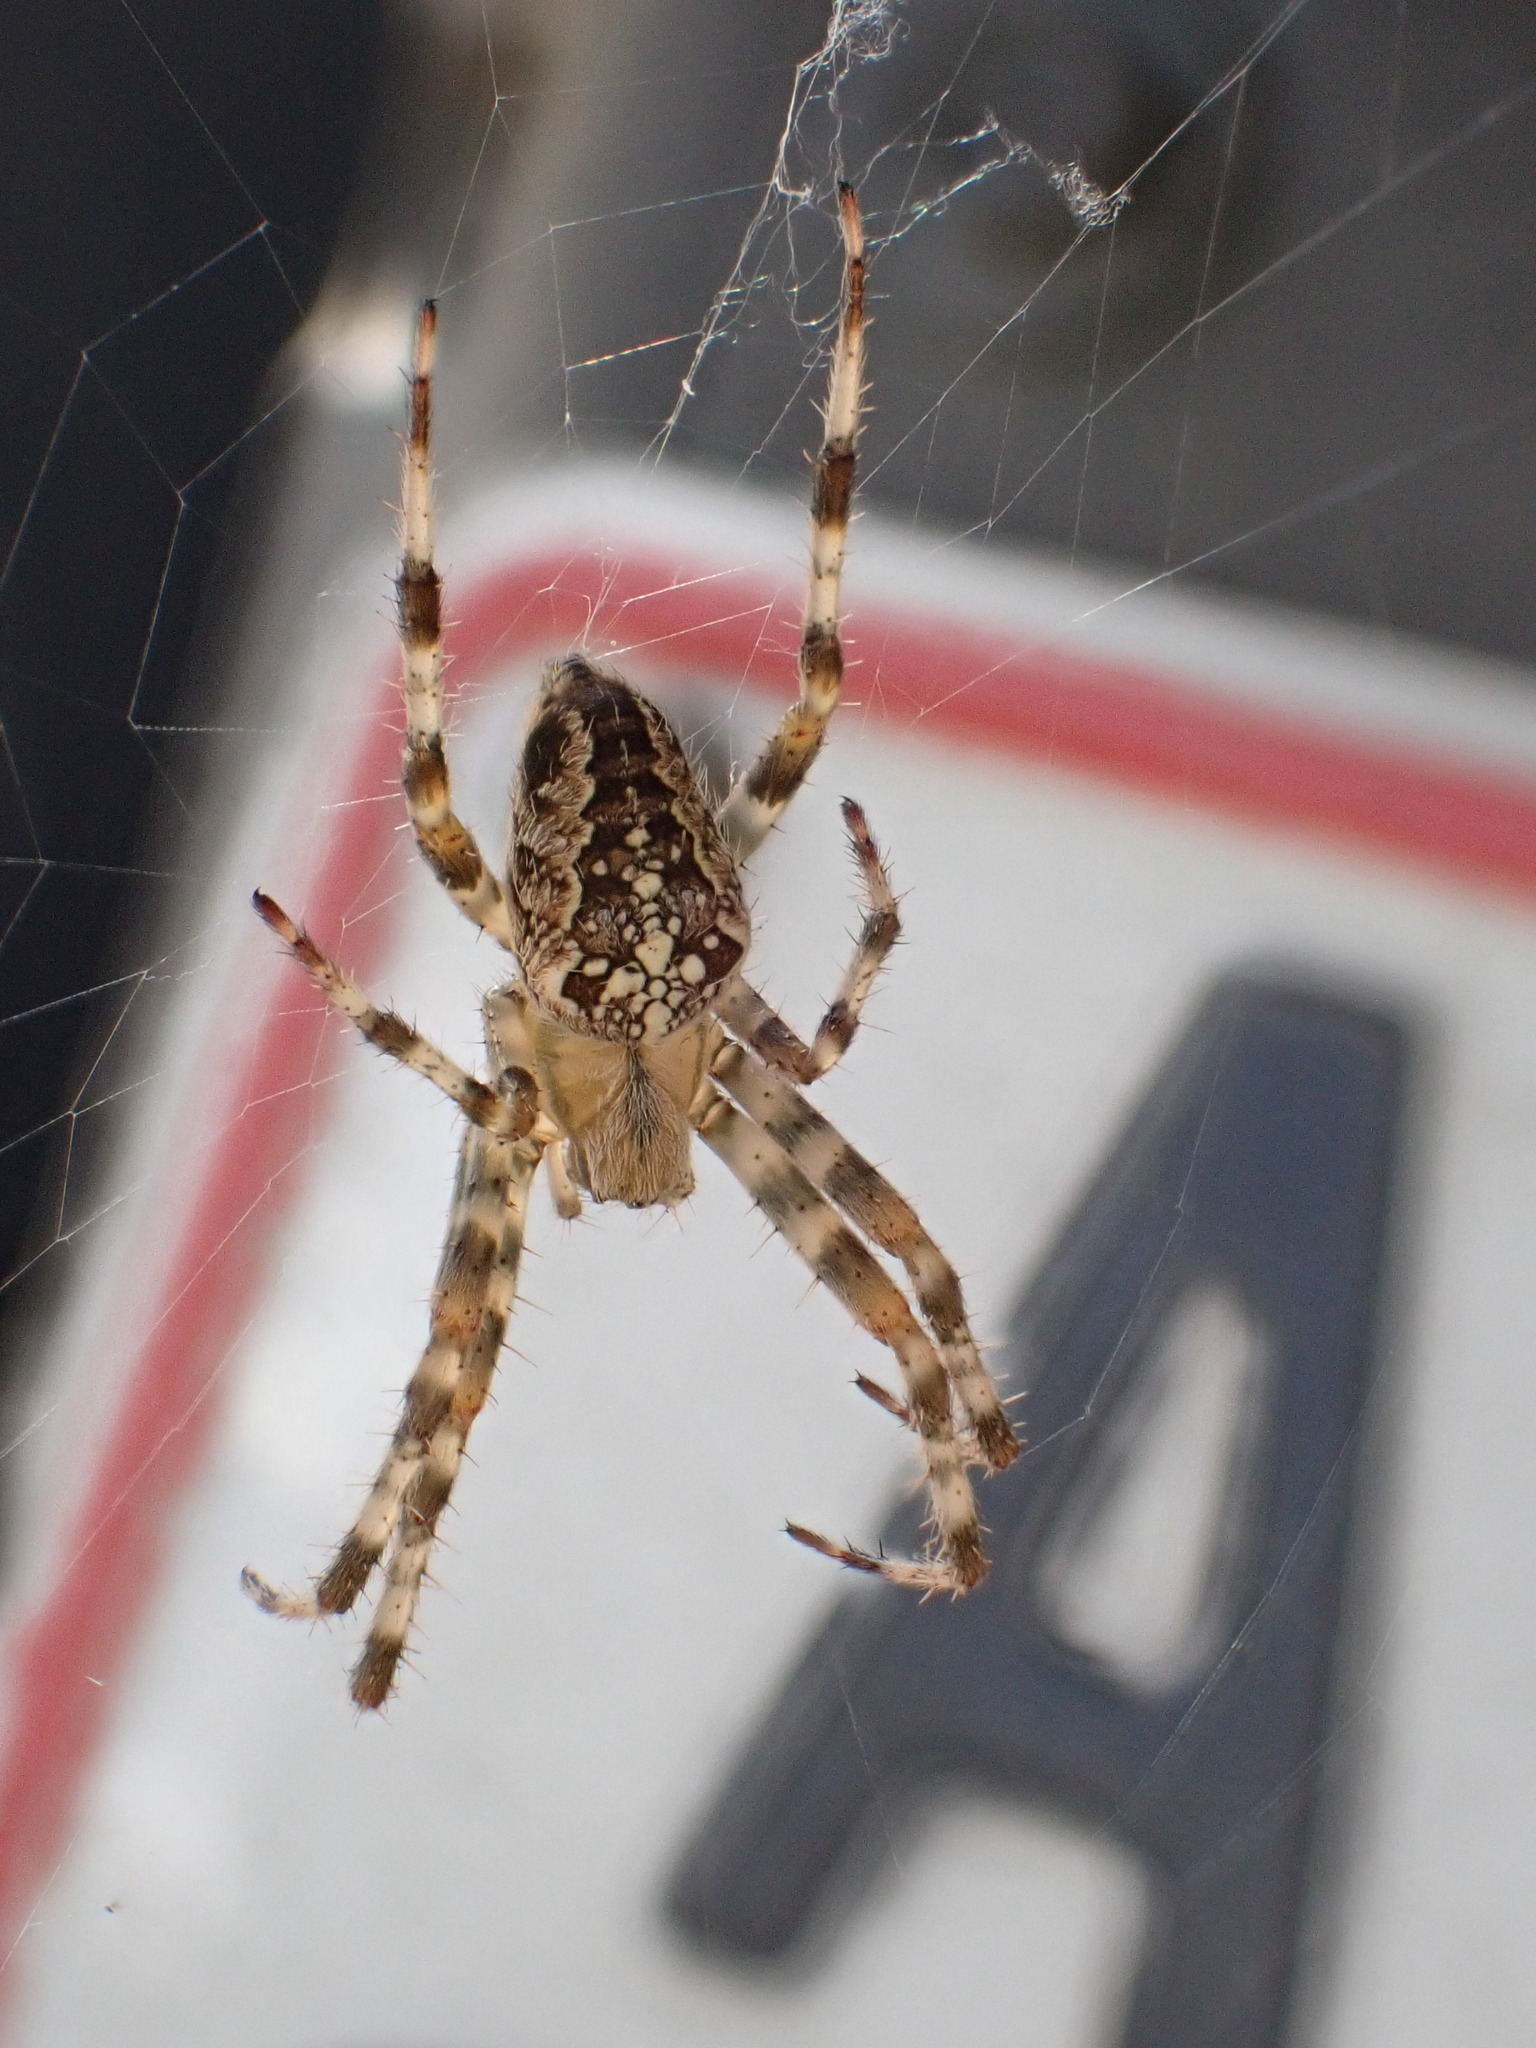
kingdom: Animalia
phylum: Arthropoda
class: Arachnida
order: Araneae
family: Araneidae
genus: Araneus
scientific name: Araneus diadematus
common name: Cross orbweaver
